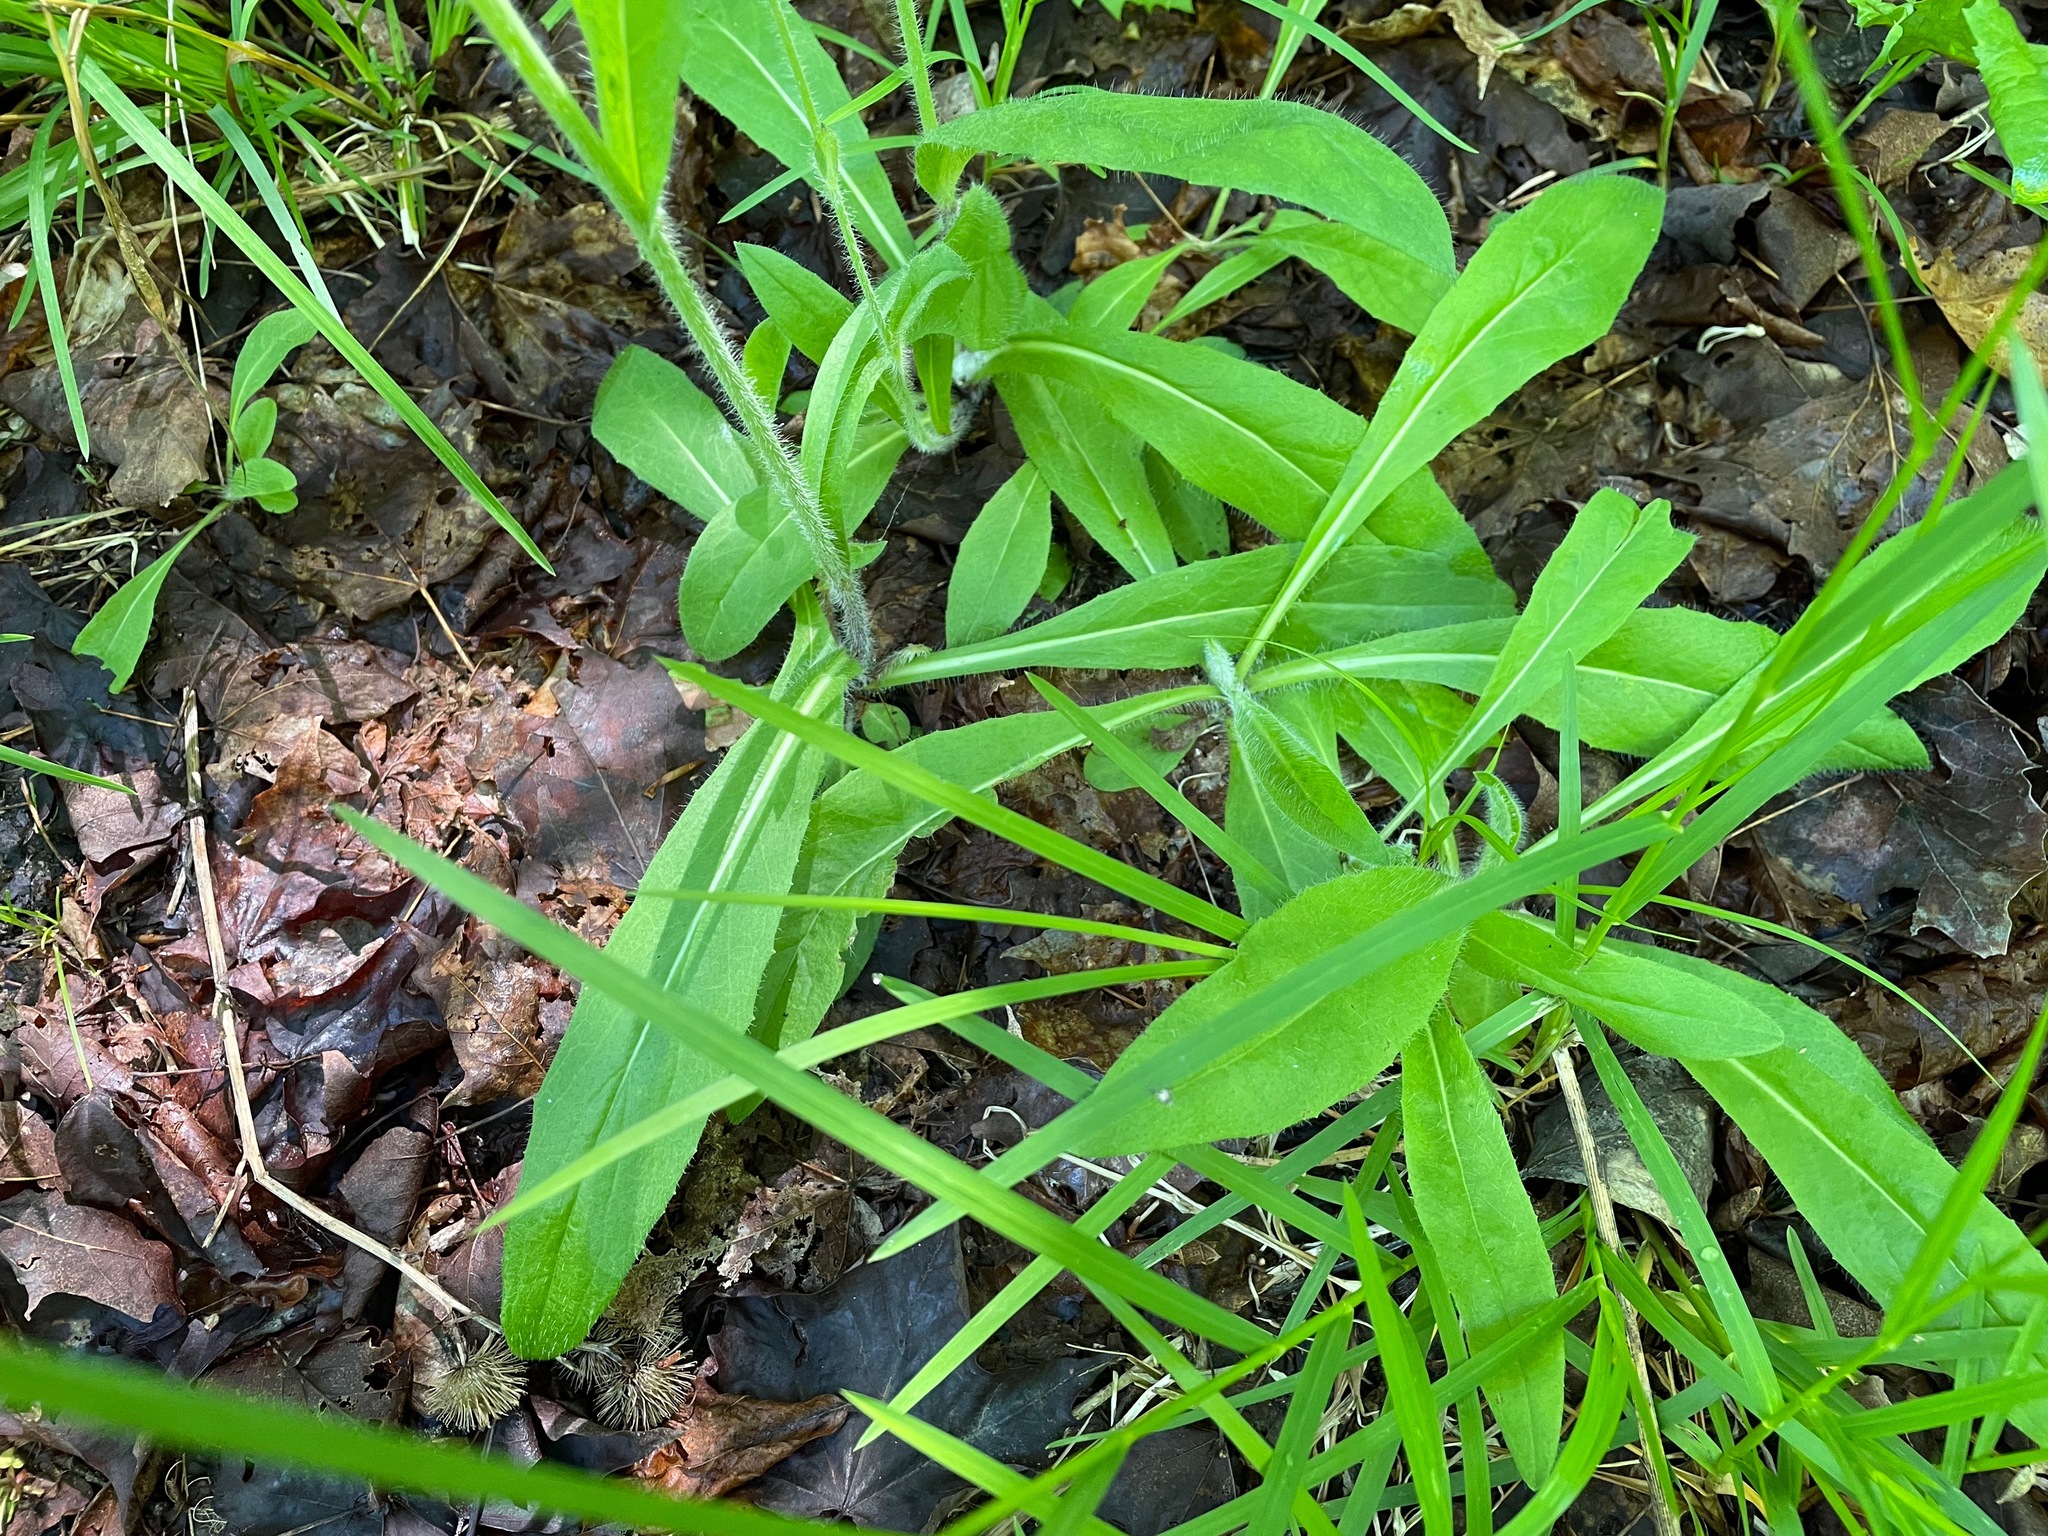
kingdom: Plantae
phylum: Tracheophyta
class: Magnoliopsida
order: Asterales
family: Asteraceae
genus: Pilosella
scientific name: Pilosella caespitosa
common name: Yellow fox-and-cubs
